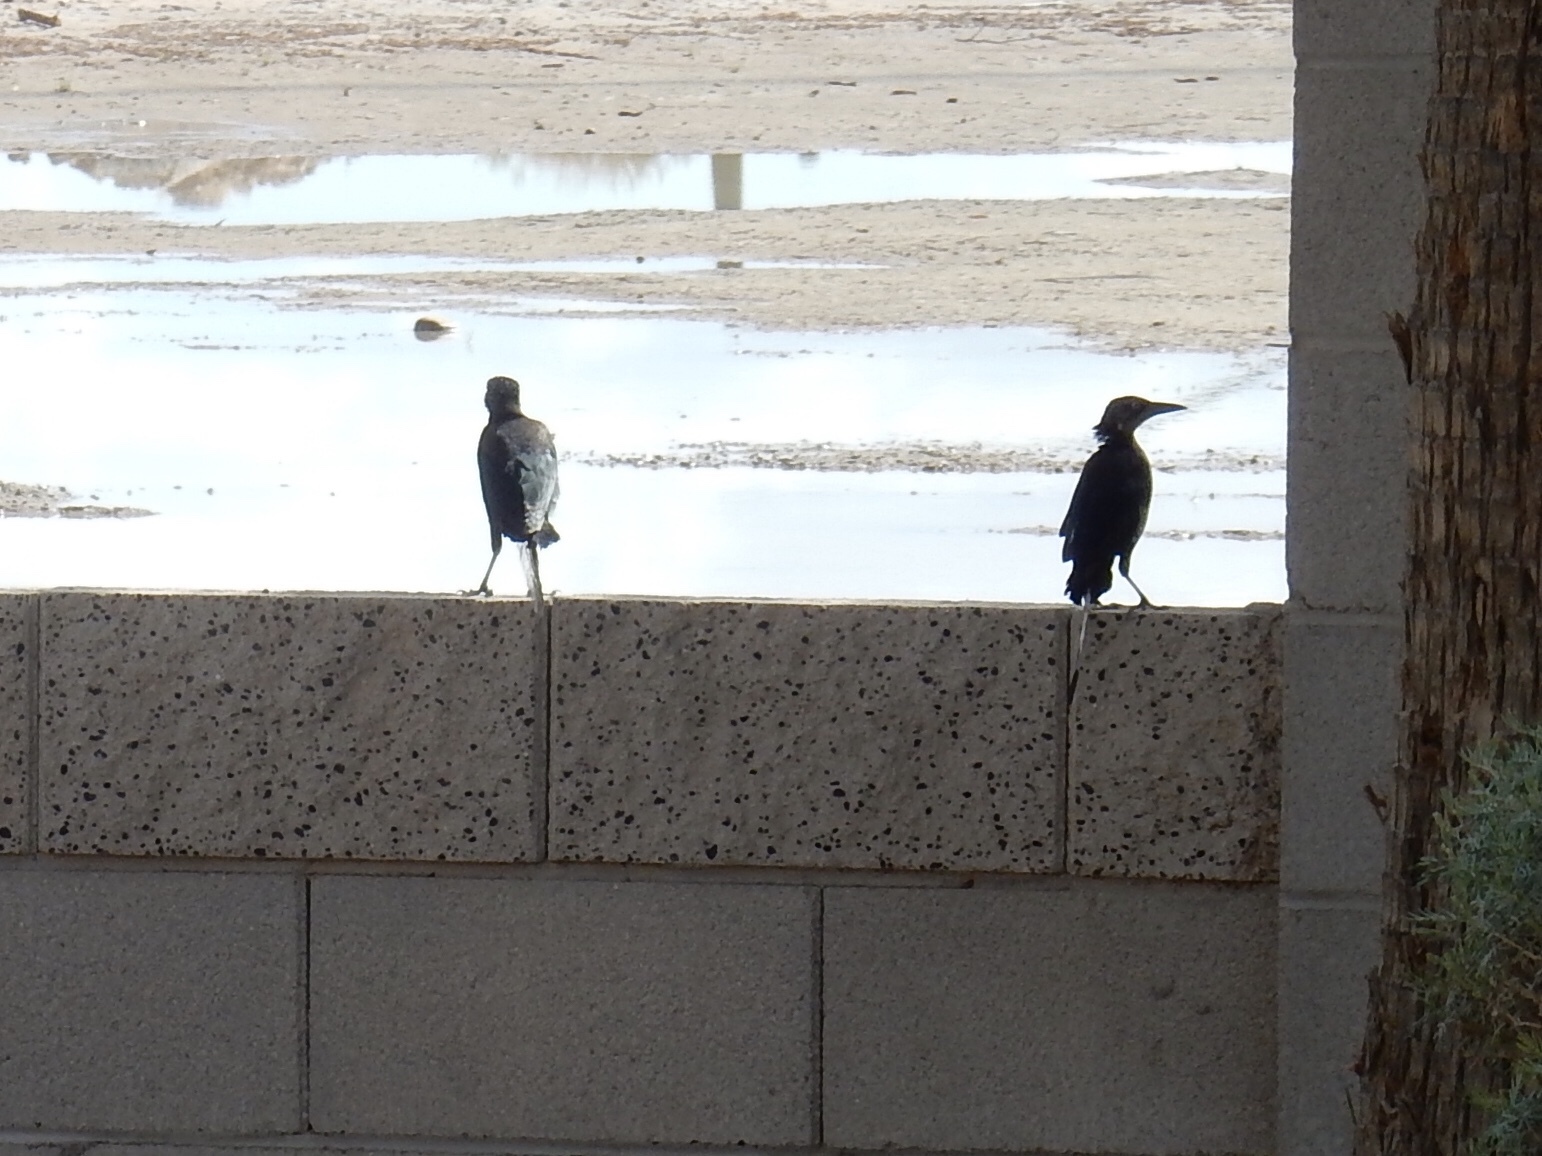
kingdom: Animalia
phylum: Chordata
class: Aves
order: Passeriformes
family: Icteridae
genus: Quiscalus
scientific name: Quiscalus mexicanus
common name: Great-tailed grackle
